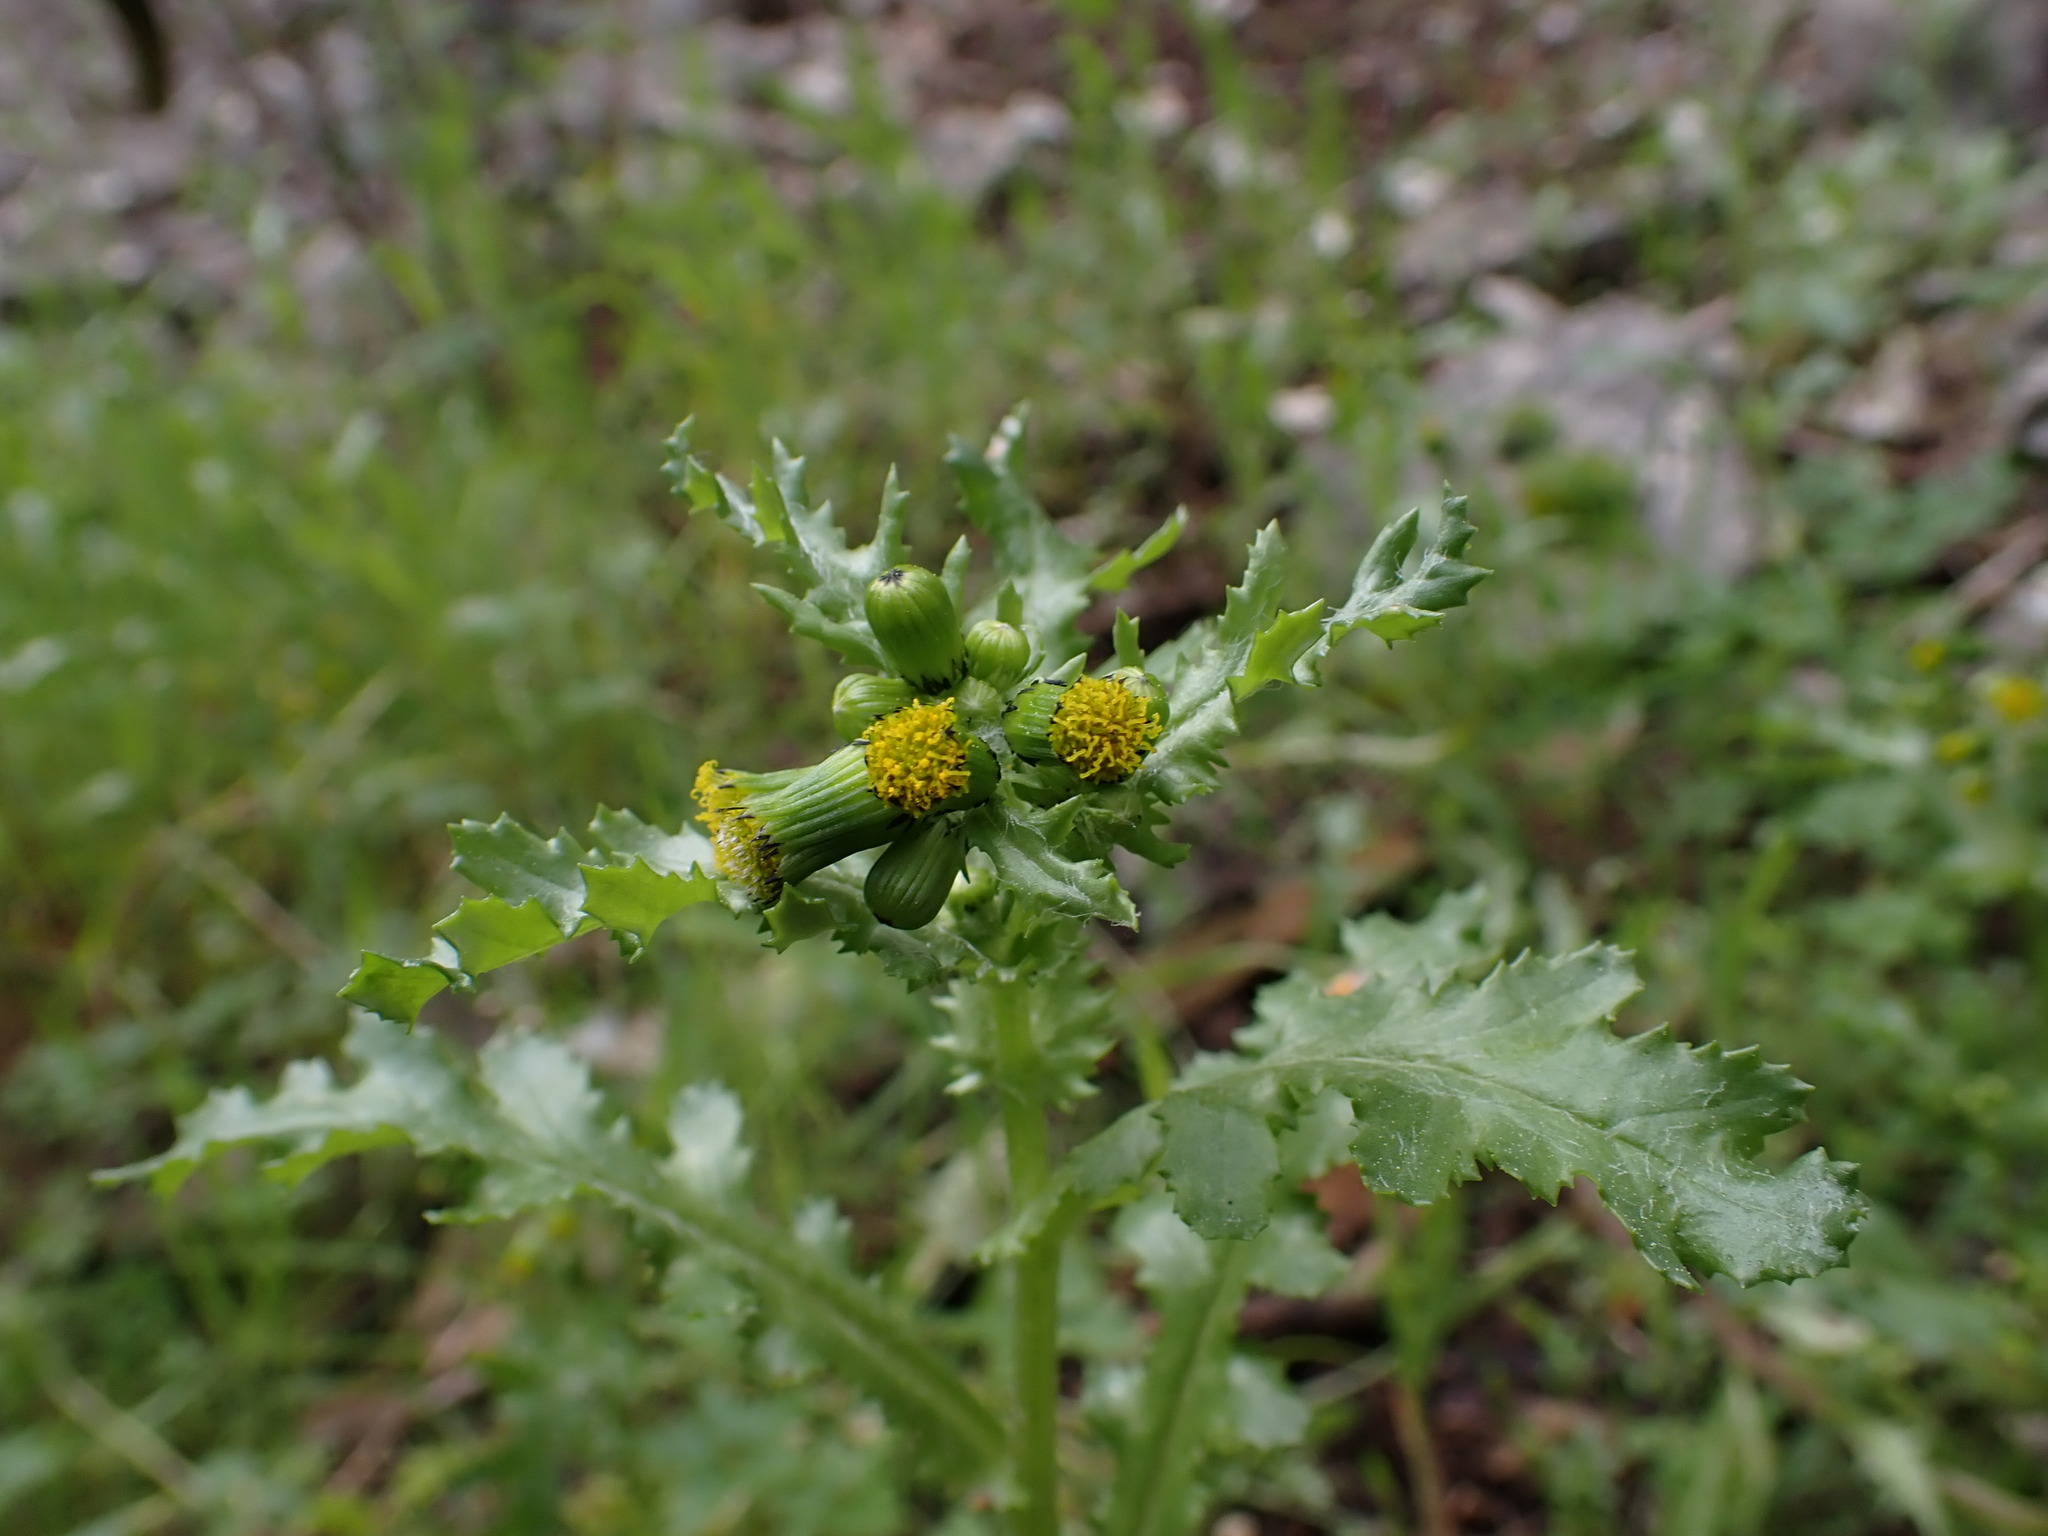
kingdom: Plantae
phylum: Tracheophyta
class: Magnoliopsida
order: Asterales
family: Asteraceae
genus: Senecio
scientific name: Senecio vulgaris
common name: Old-man-in-the-spring
